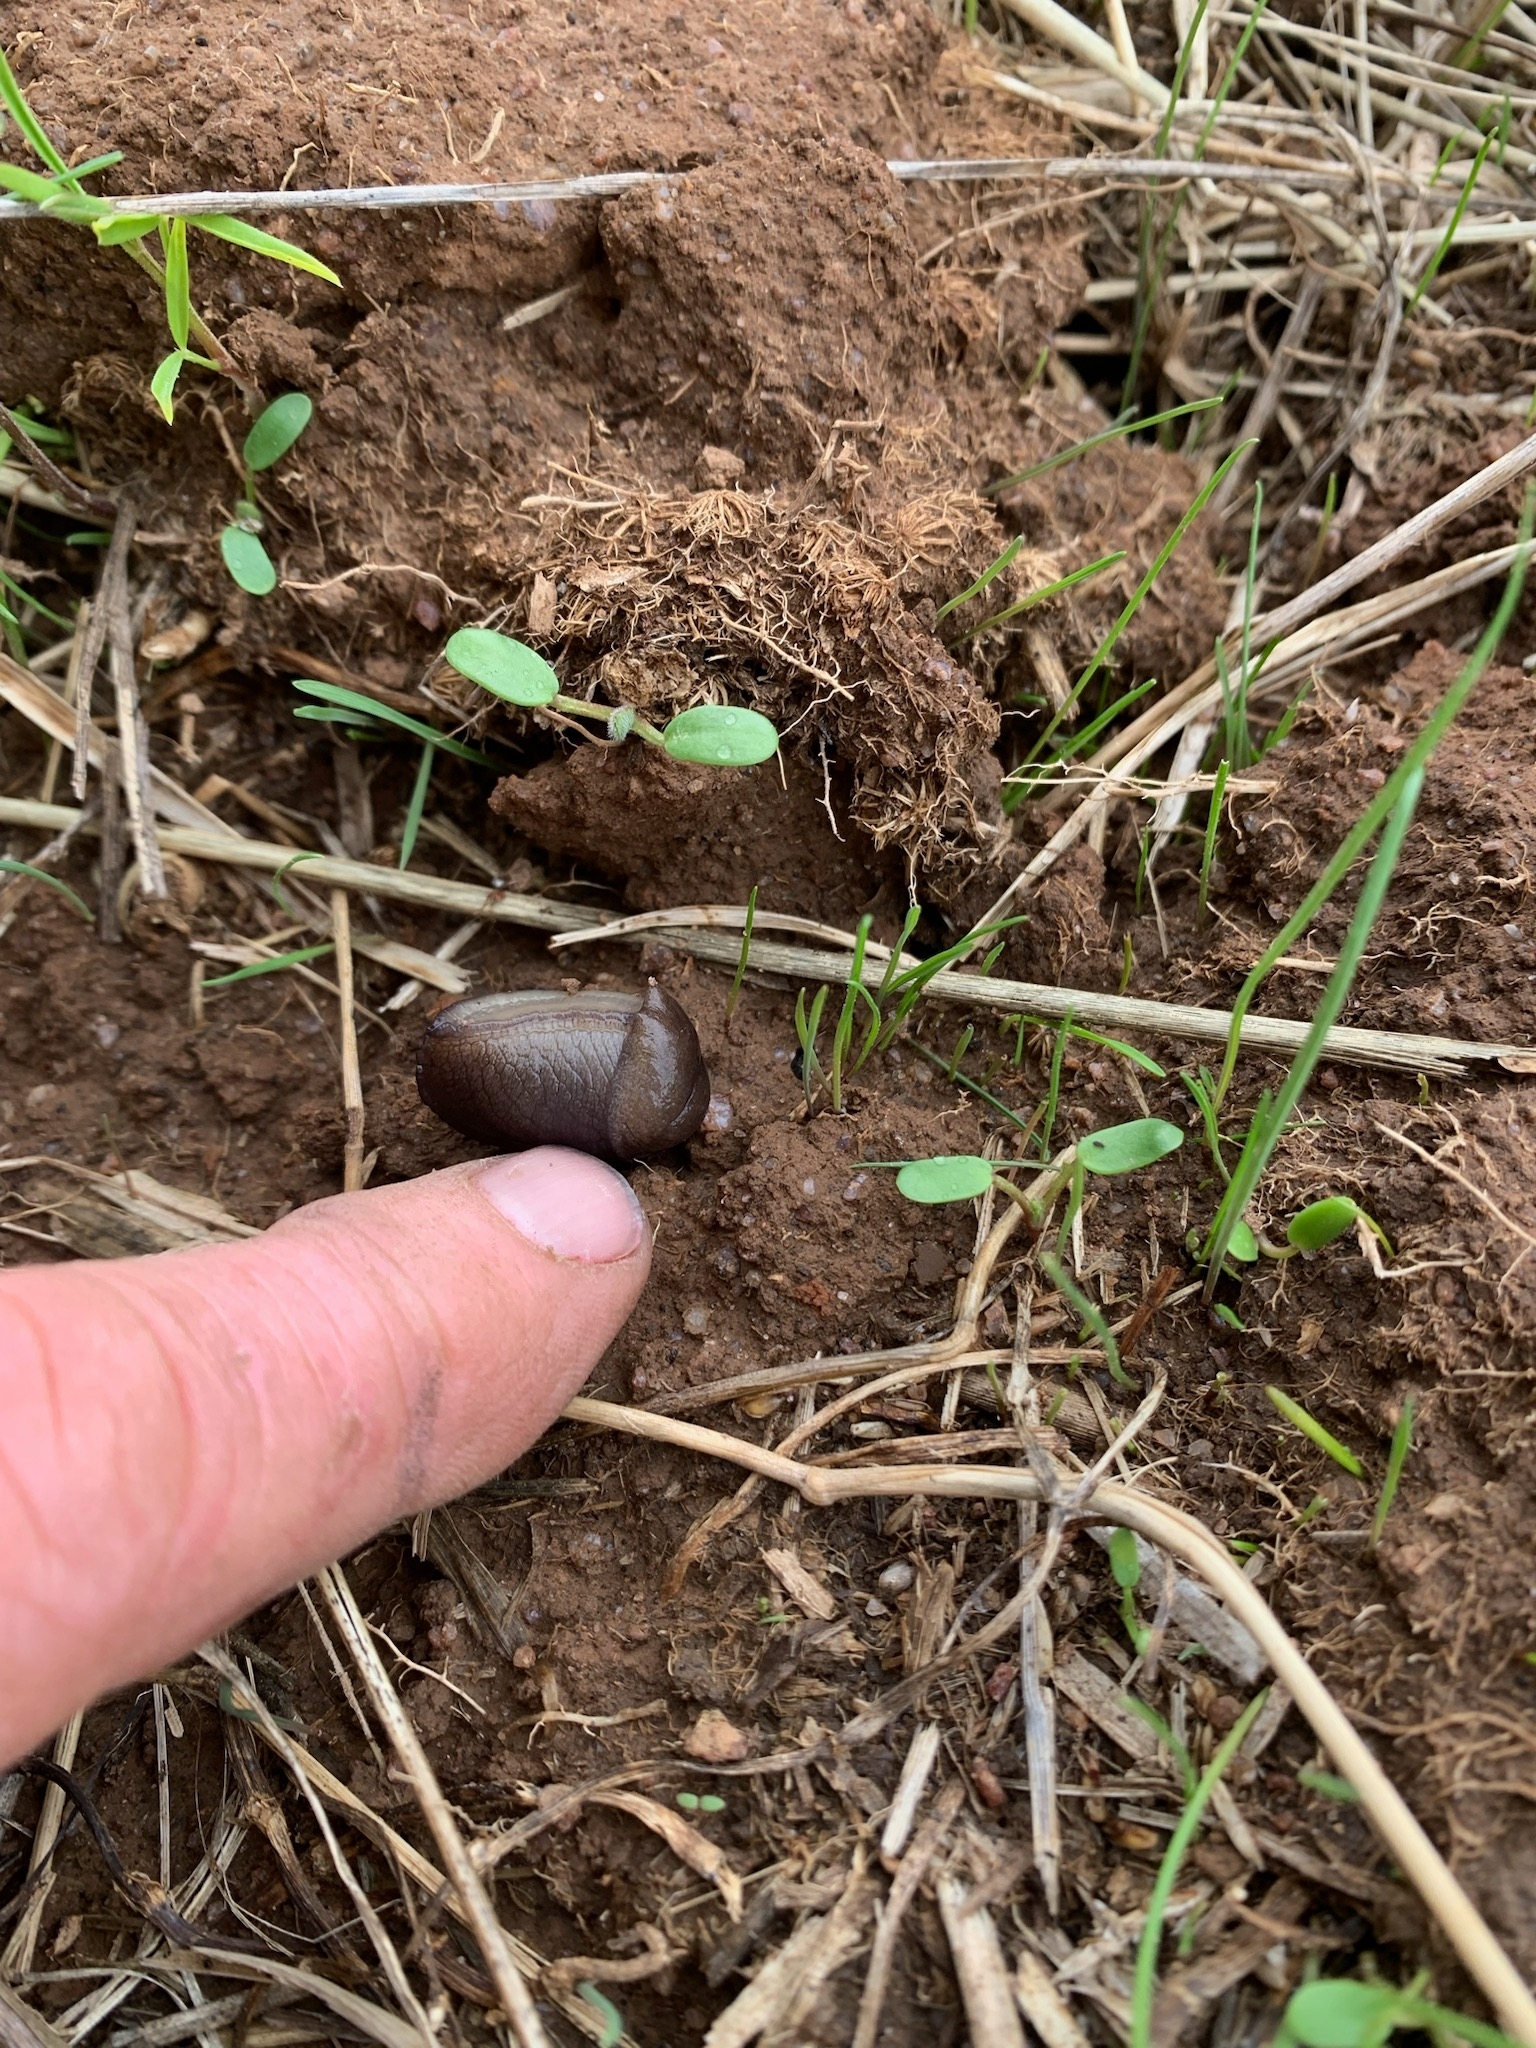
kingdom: Animalia
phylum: Mollusca
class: Gastropoda
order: Stylommatophora
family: Milacidae
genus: Milax
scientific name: Milax gagates
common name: Greenhouse slug
